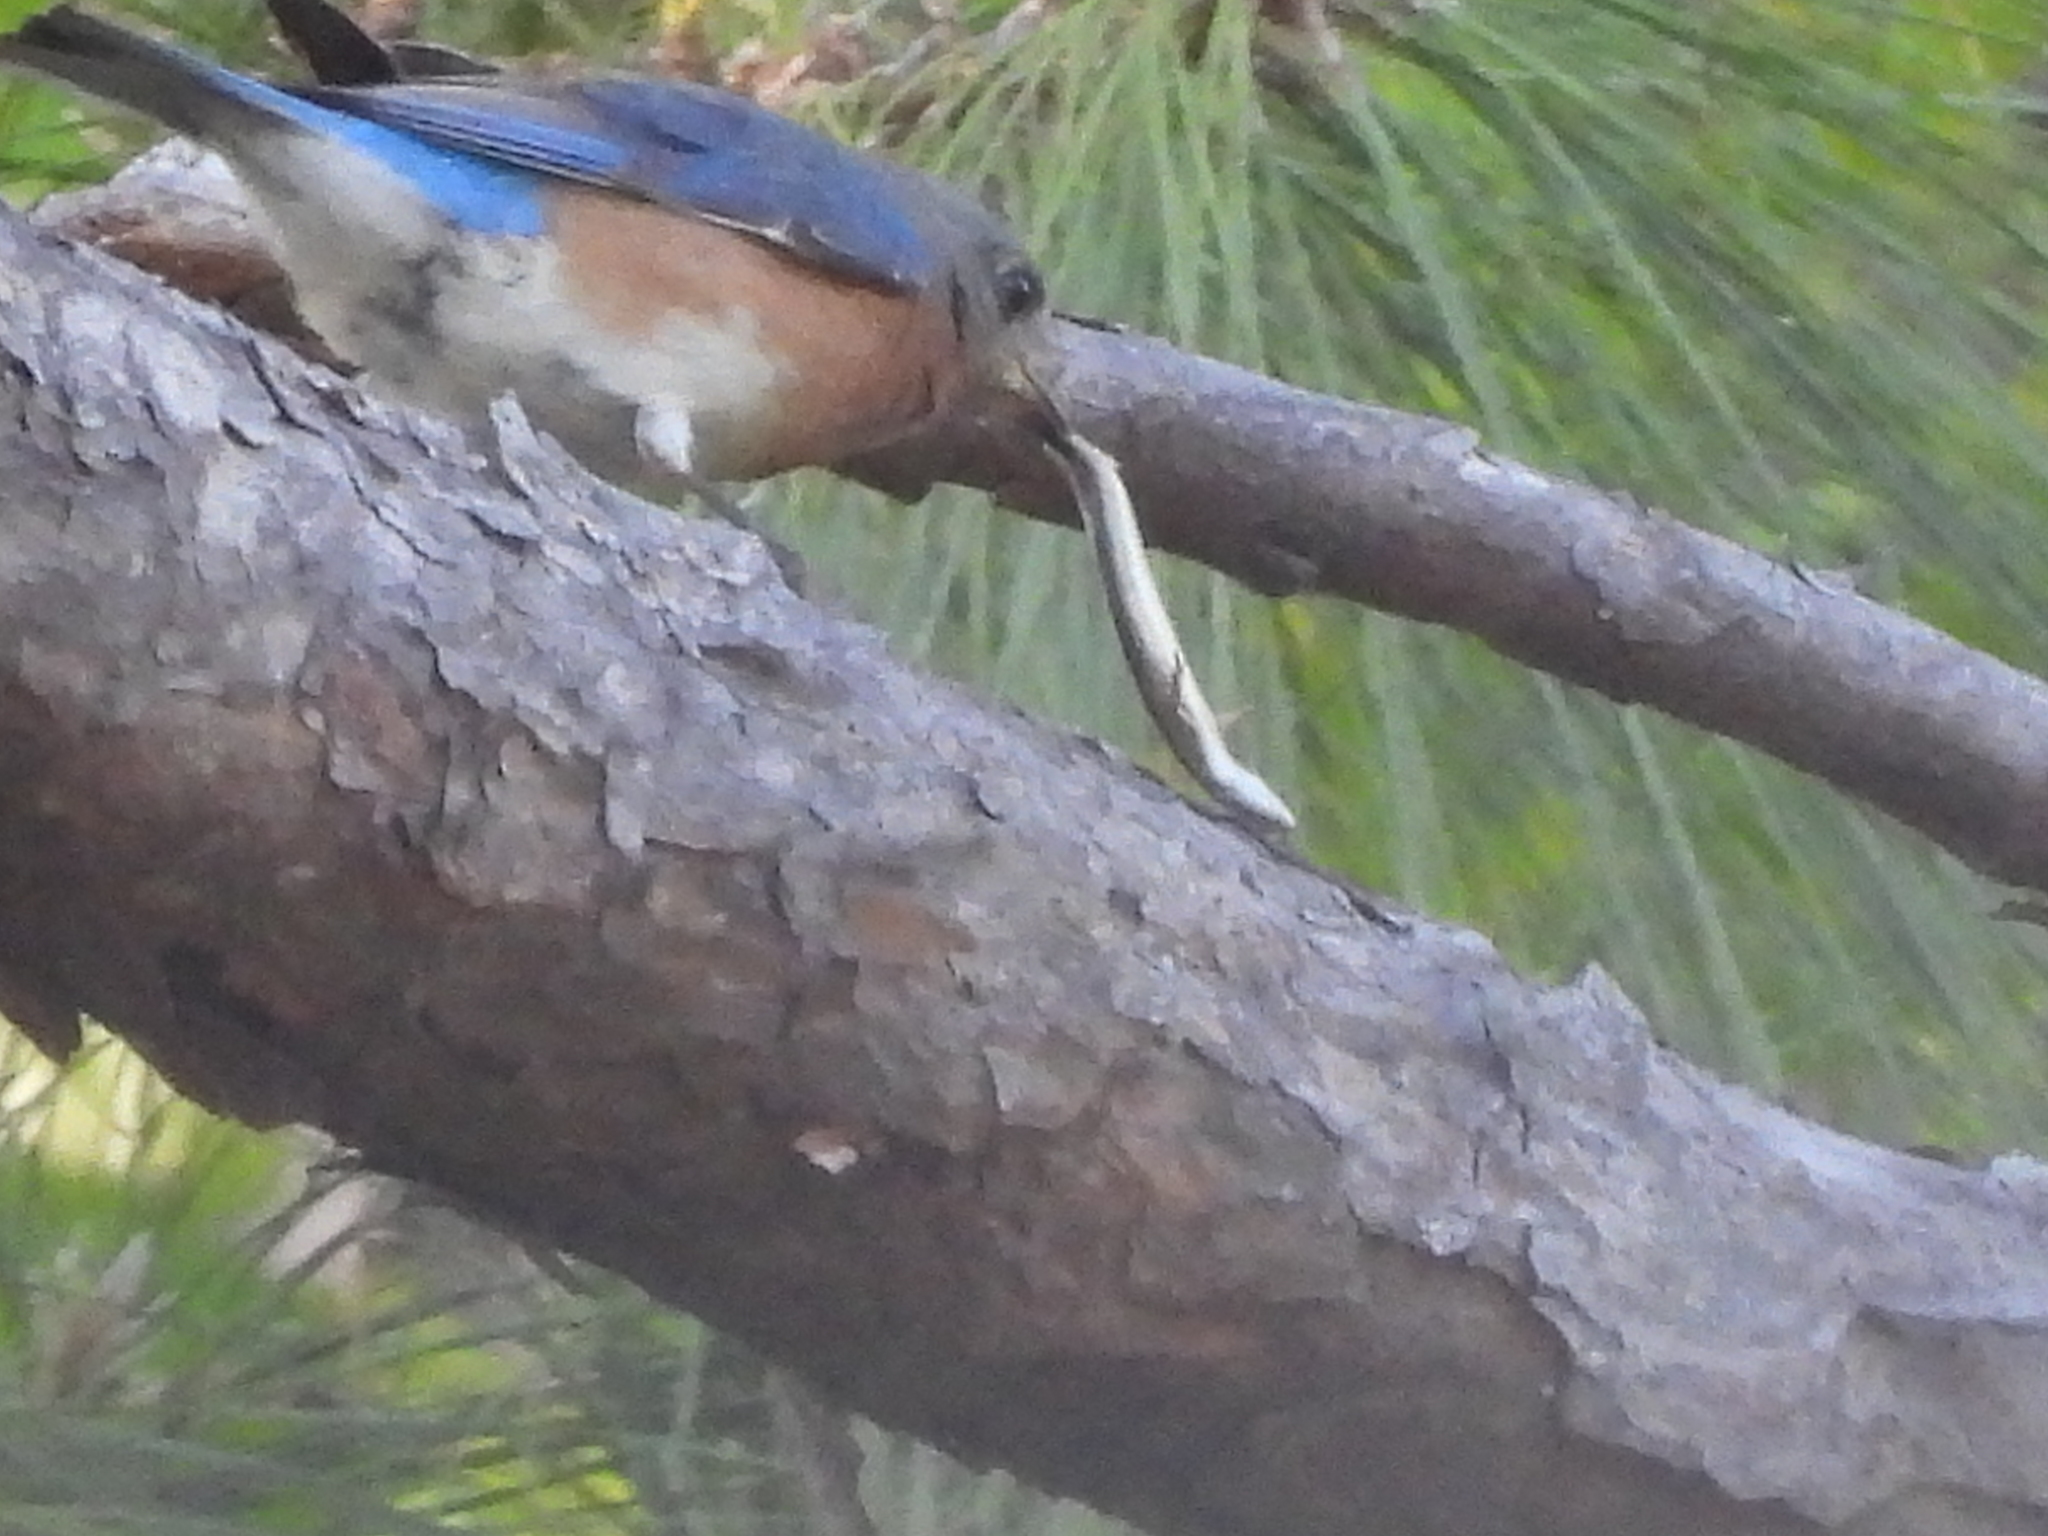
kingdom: Animalia
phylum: Chordata
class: Squamata
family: Scincidae
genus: Scincella
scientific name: Scincella lateralis
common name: Ground skink
